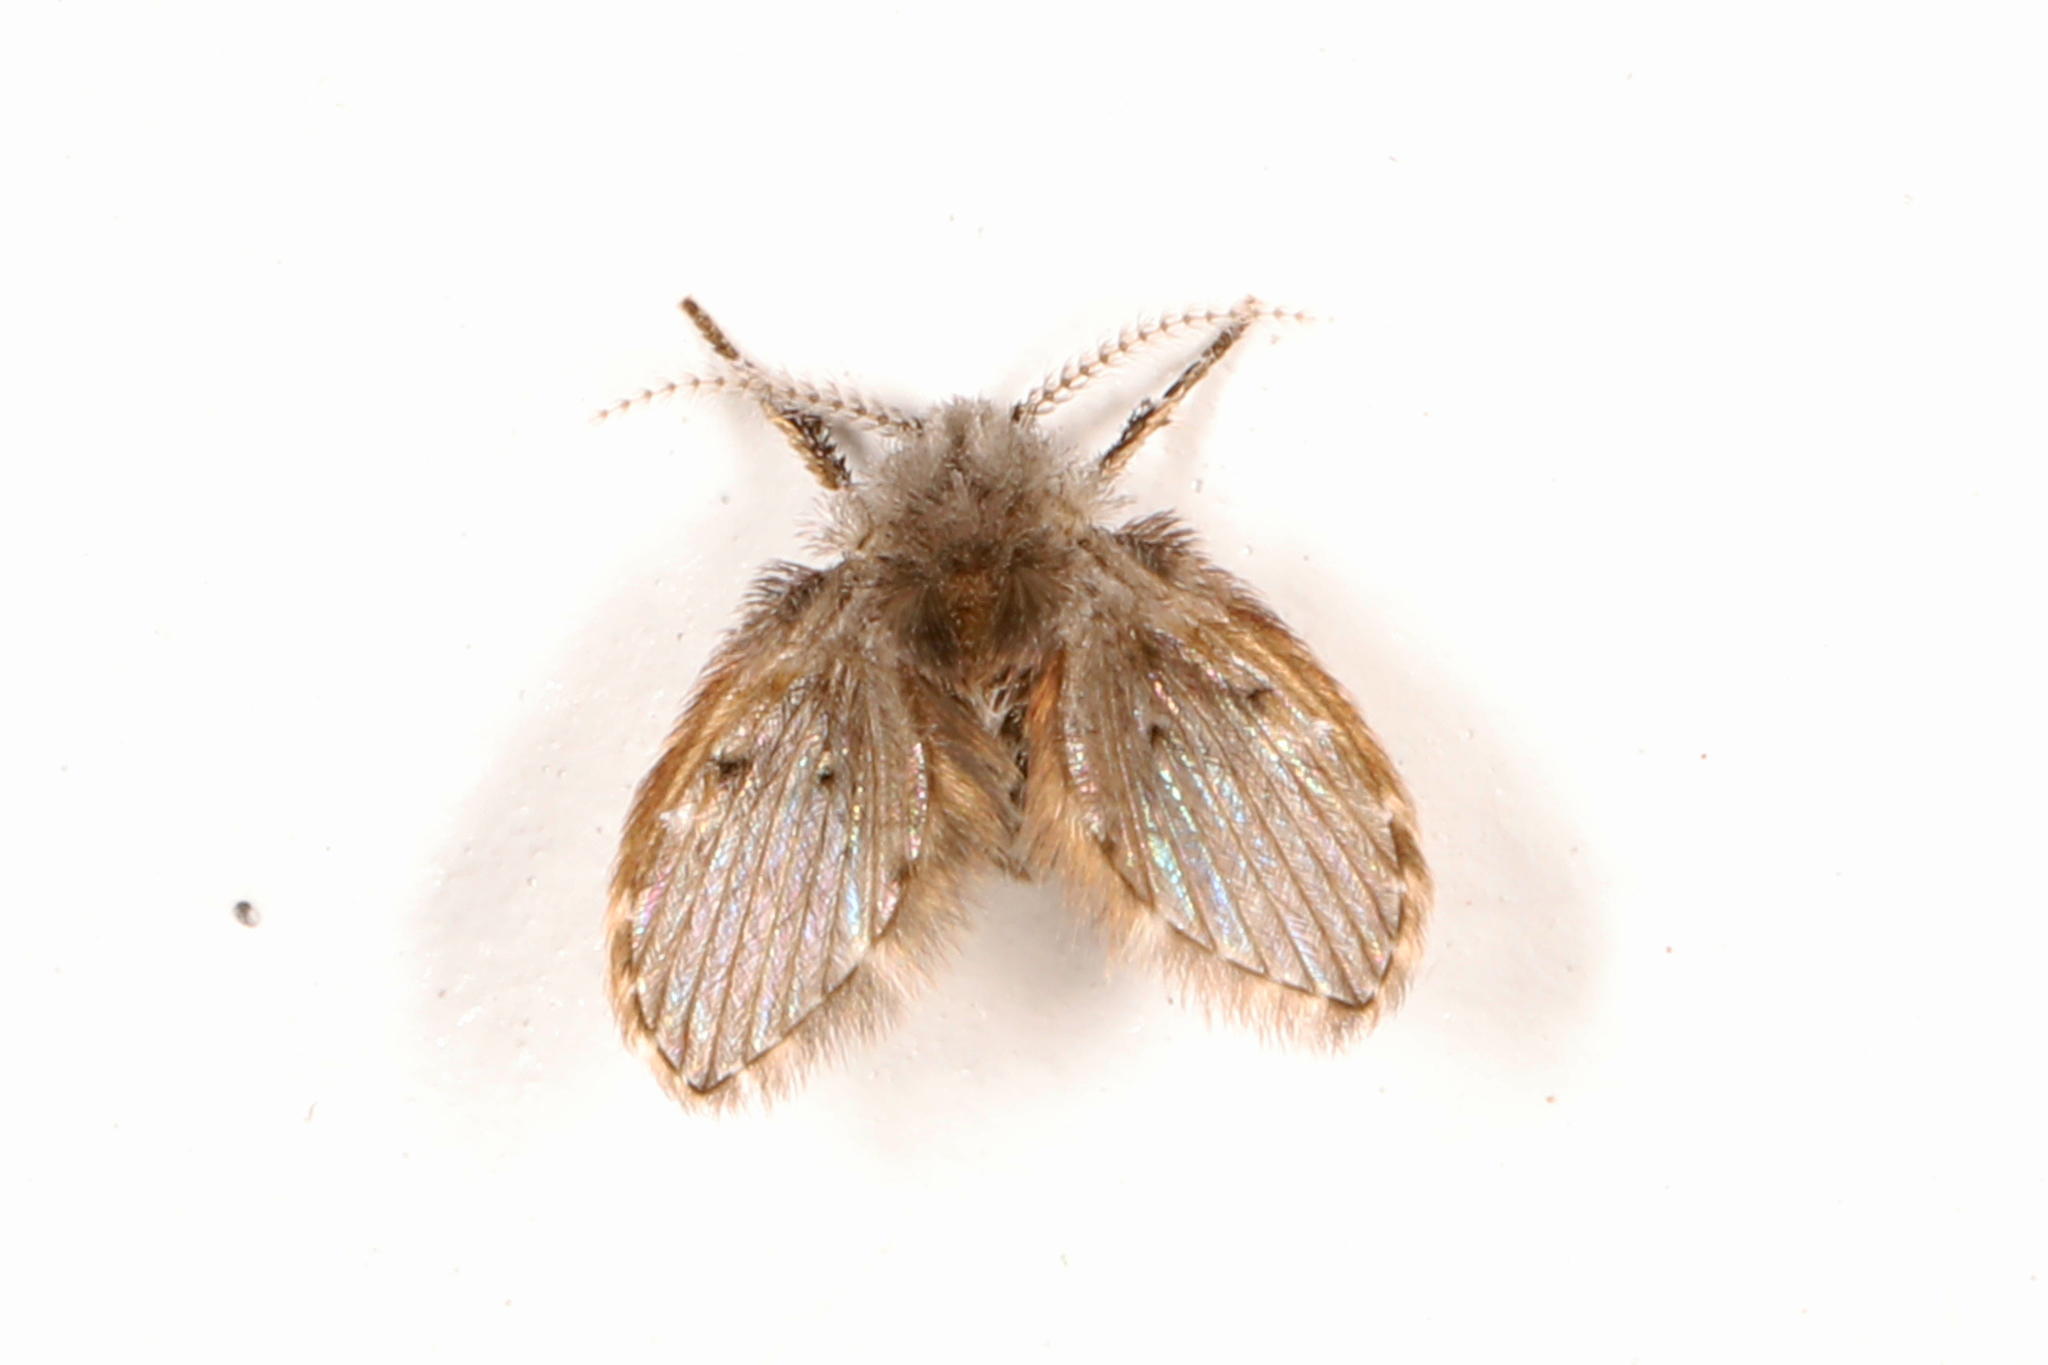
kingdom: Animalia
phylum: Arthropoda
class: Insecta
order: Diptera
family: Psychodidae
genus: Clogmia
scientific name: Clogmia albipunctatus
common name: White-spotted moth fly
